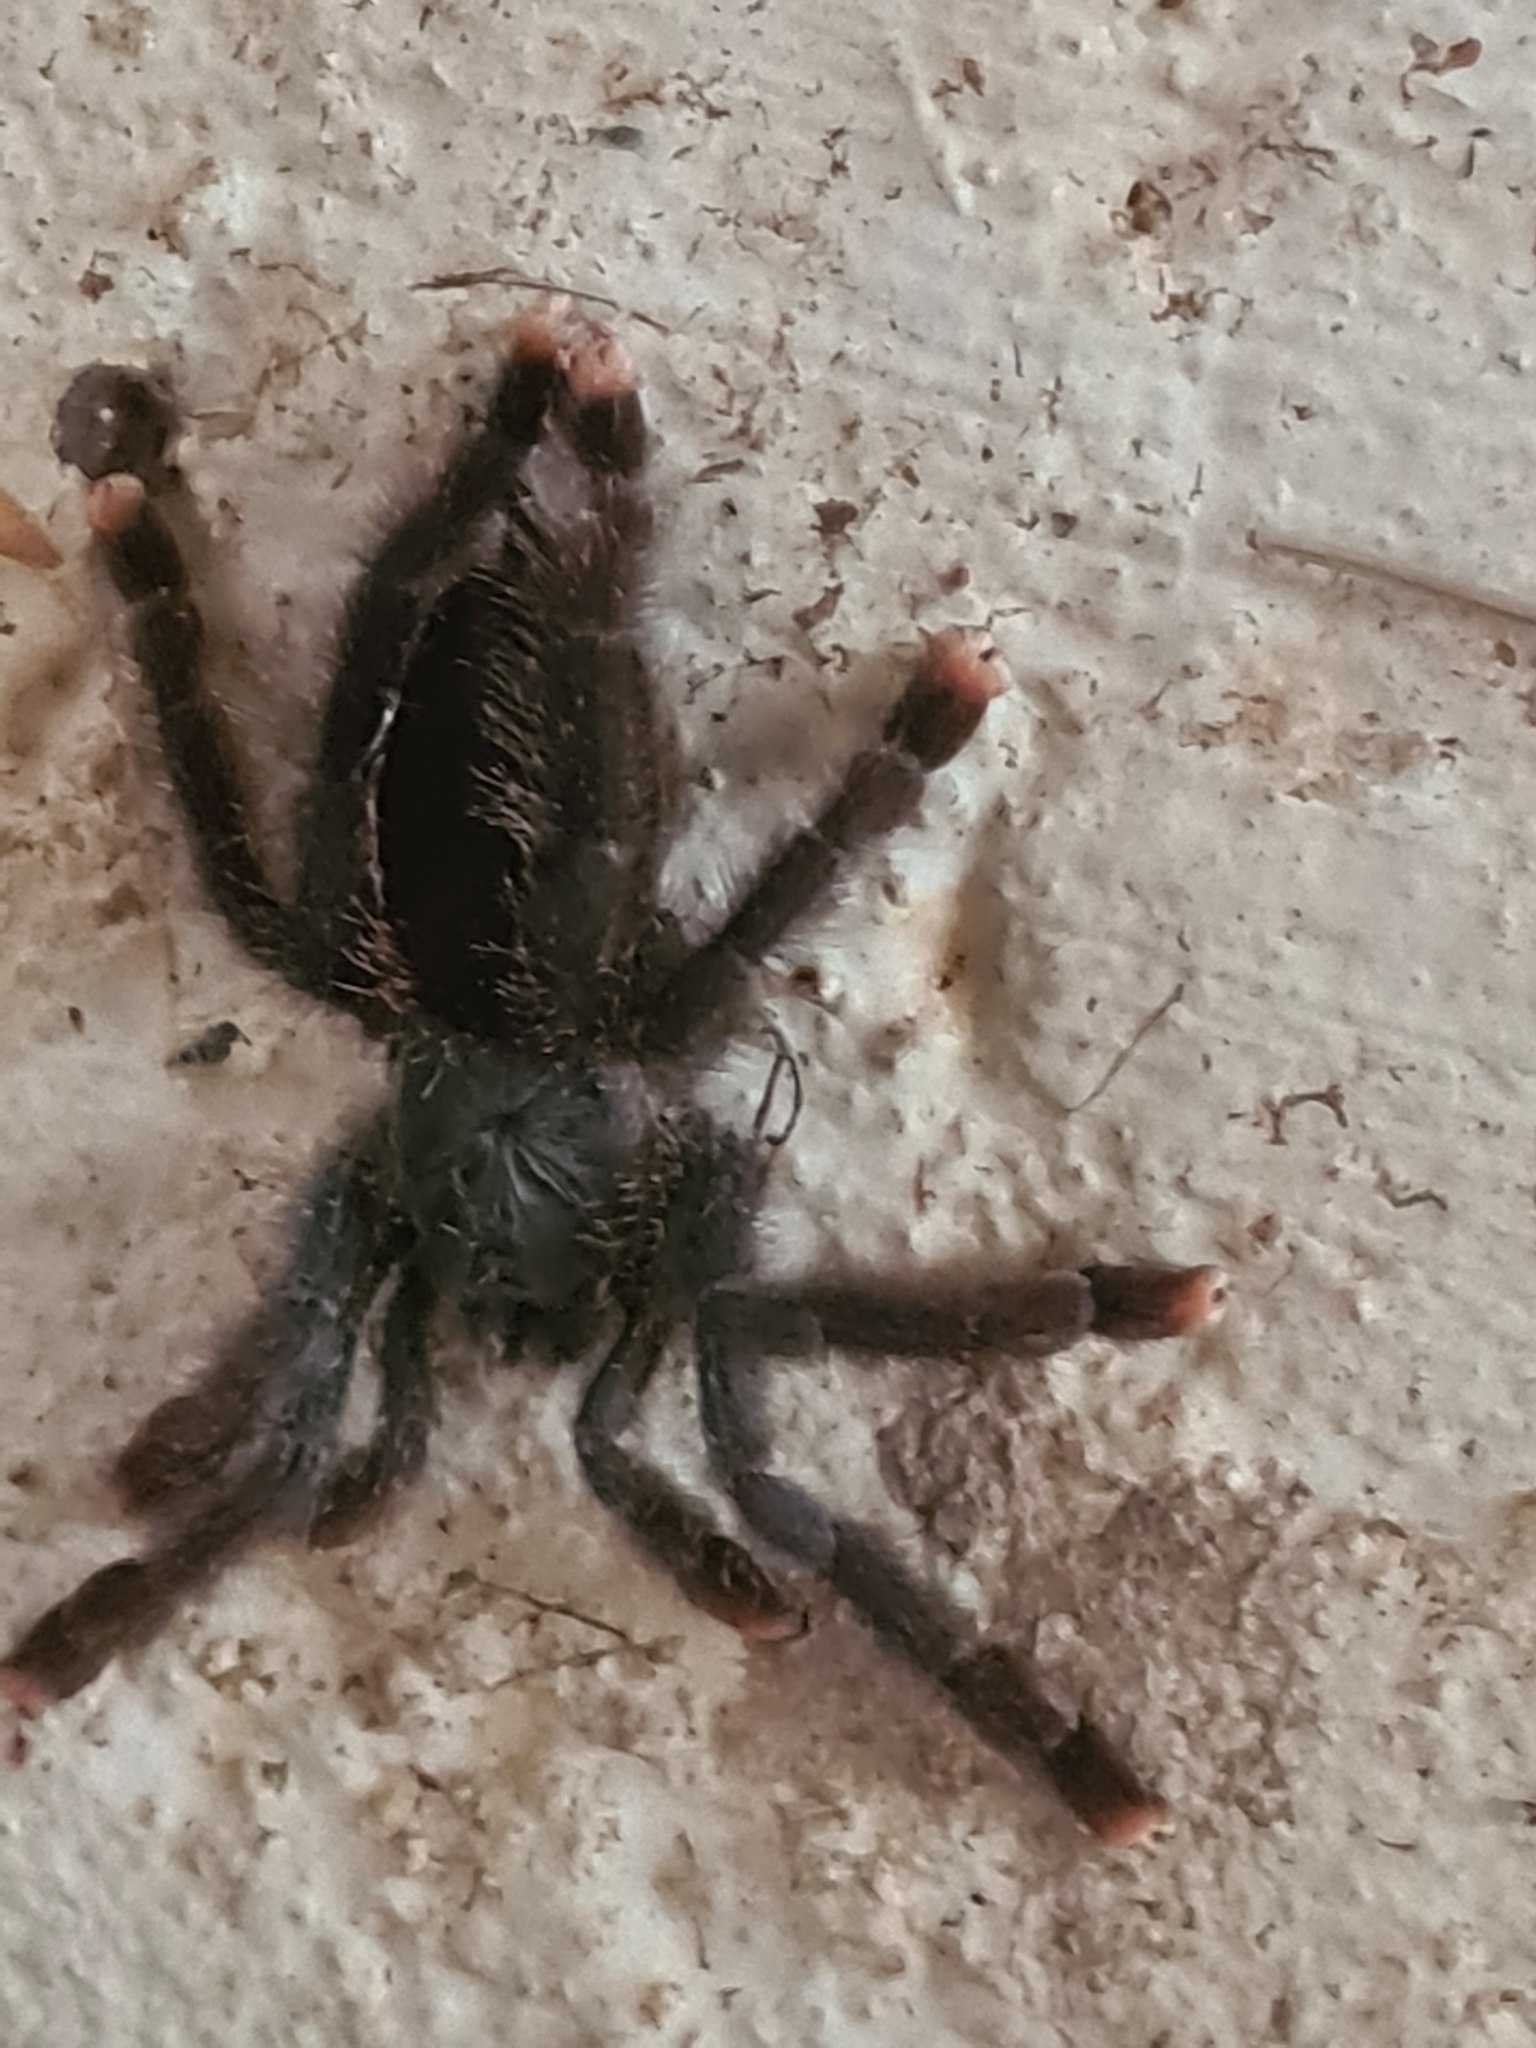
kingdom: Animalia
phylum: Arthropoda
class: Arachnida
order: Araneae
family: Theraphosidae
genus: Avicularia
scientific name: Avicularia avicularia
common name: Tarantula spiders
